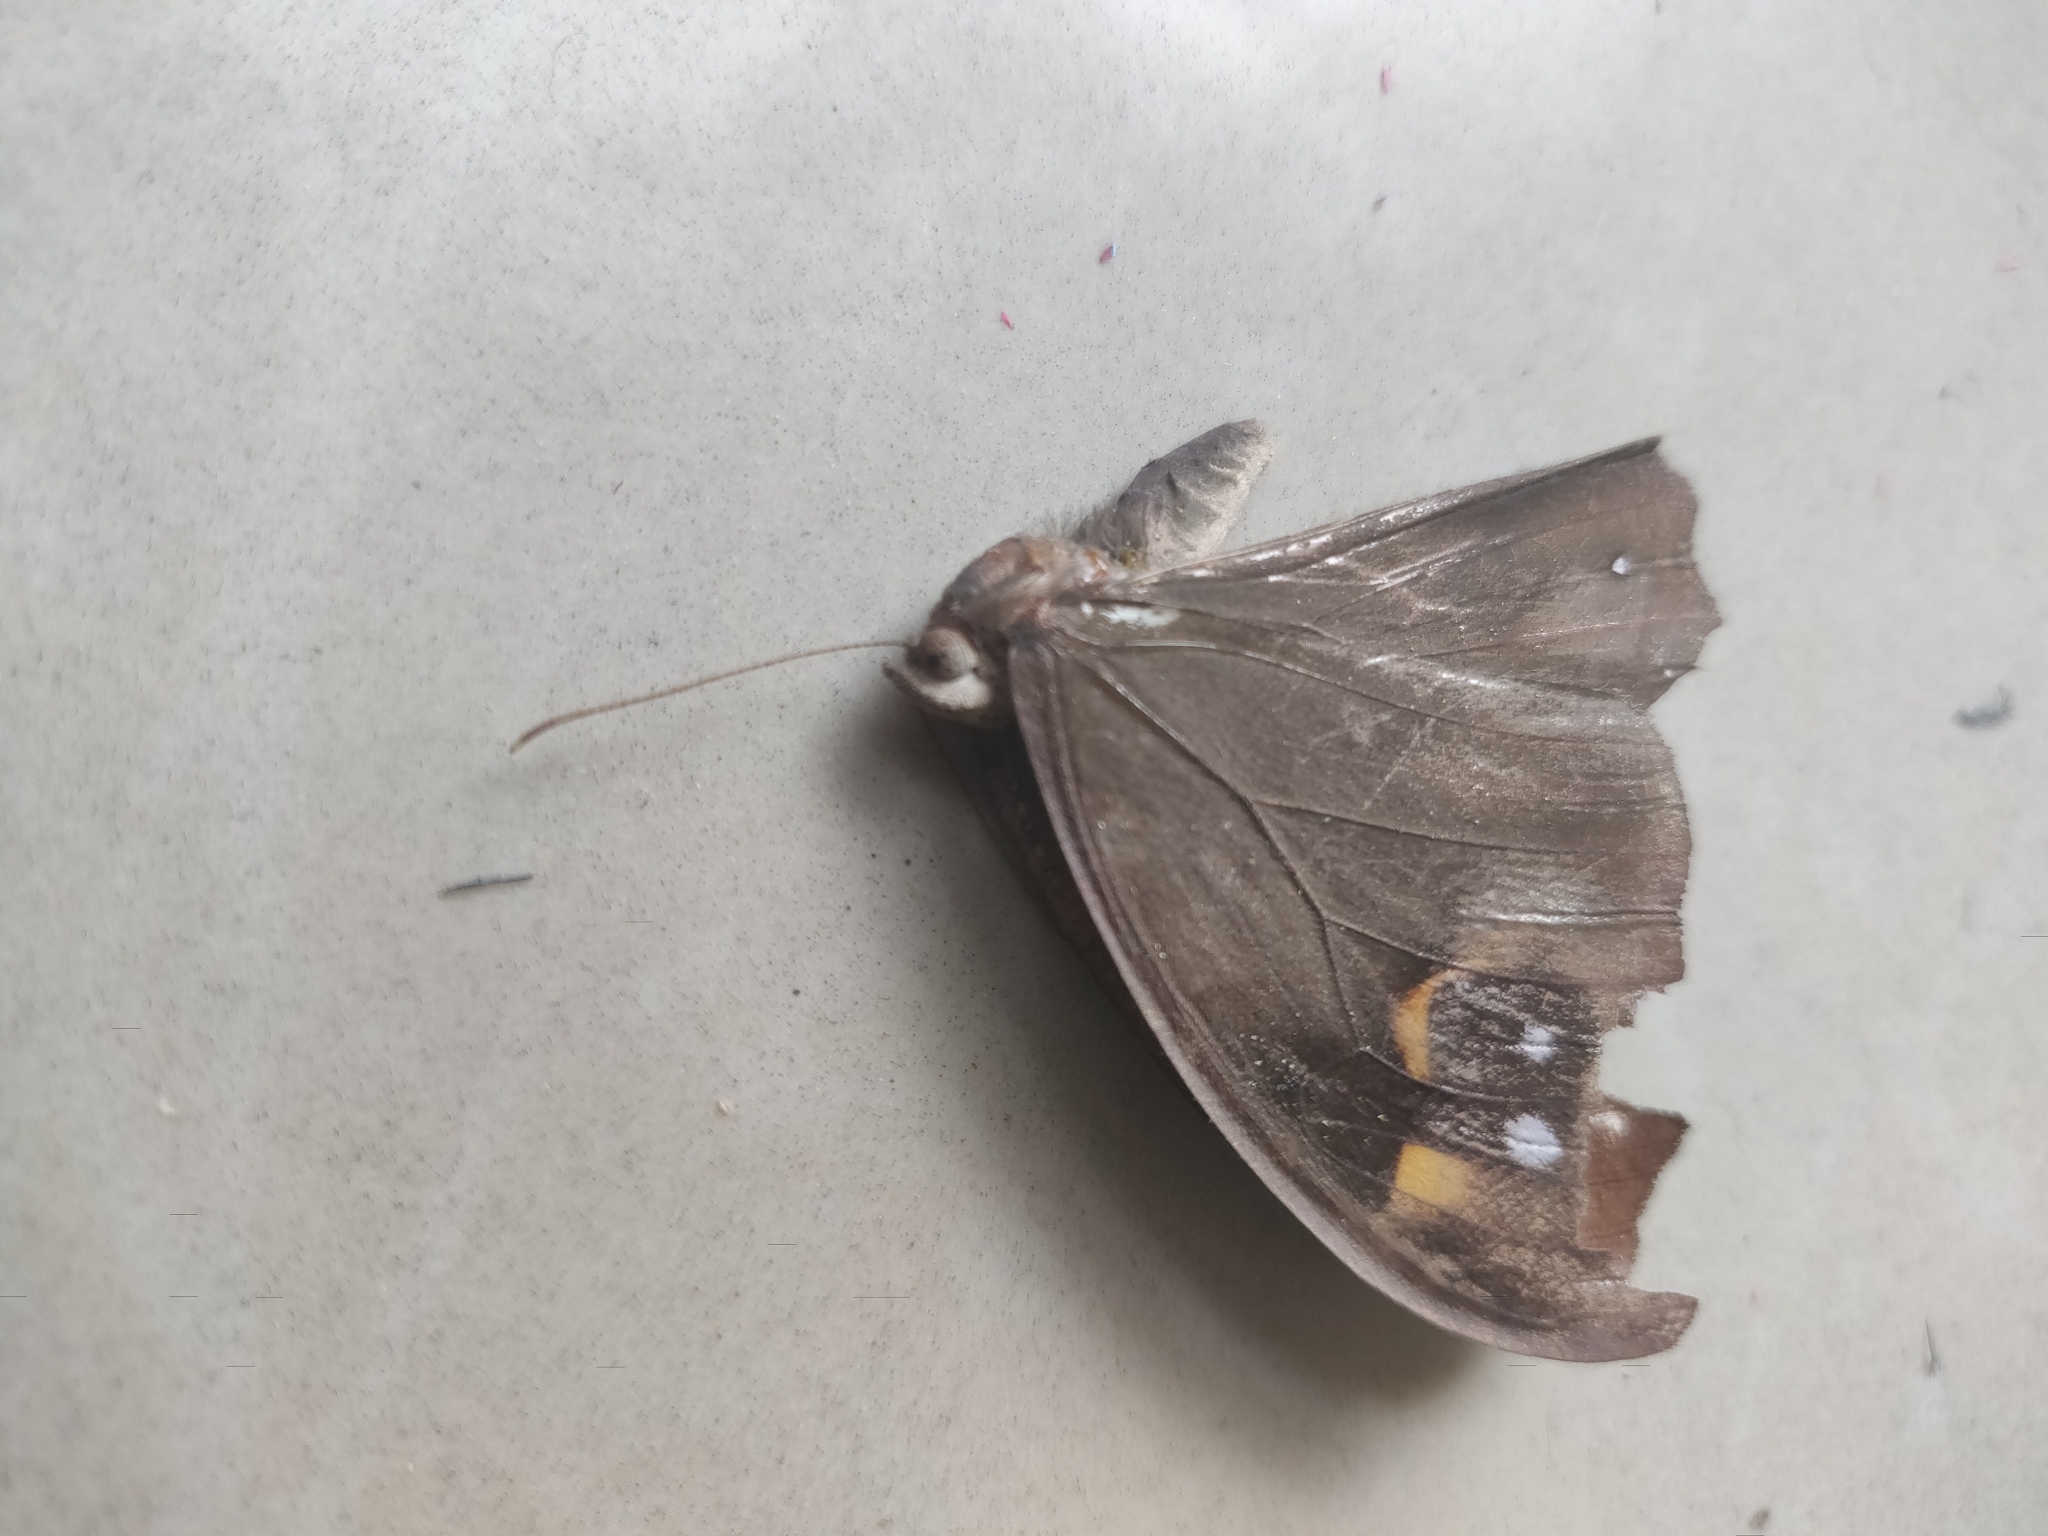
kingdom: Animalia
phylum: Arthropoda
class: Insecta
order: Lepidoptera
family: Nymphalidae
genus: Melanitis
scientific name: Melanitis leda
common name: Twilight brown
